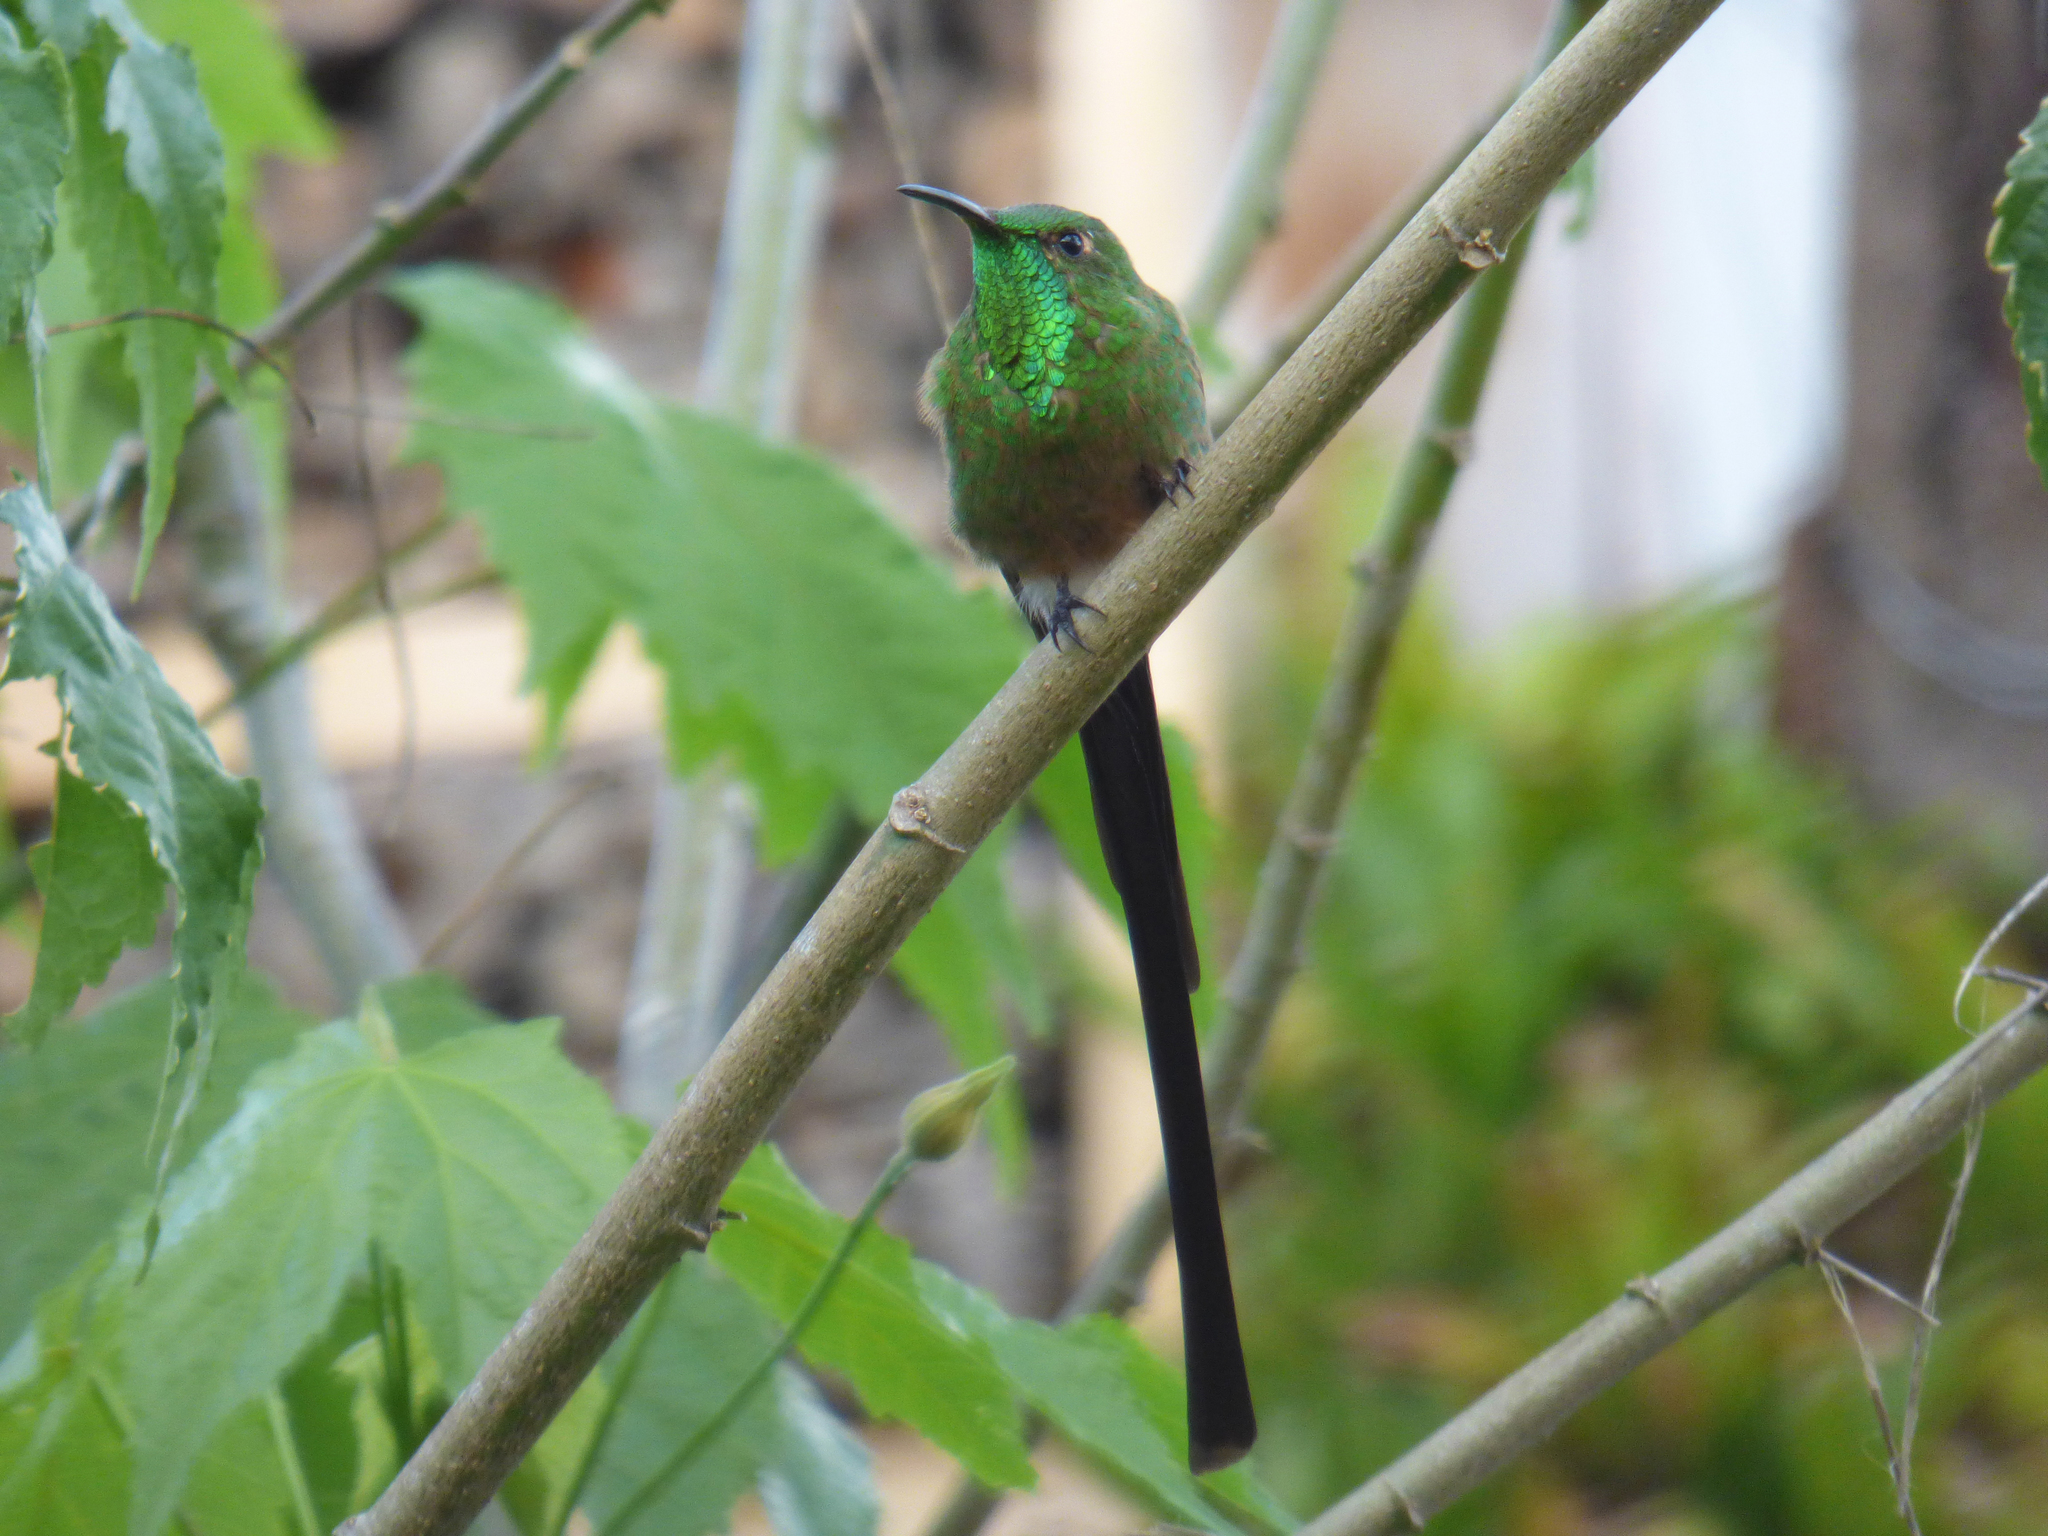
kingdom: Animalia
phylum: Chordata
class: Aves
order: Apodiformes
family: Trochilidae
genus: Lesbia
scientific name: Lesbia victoriae
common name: Black-tailed trainbearer
